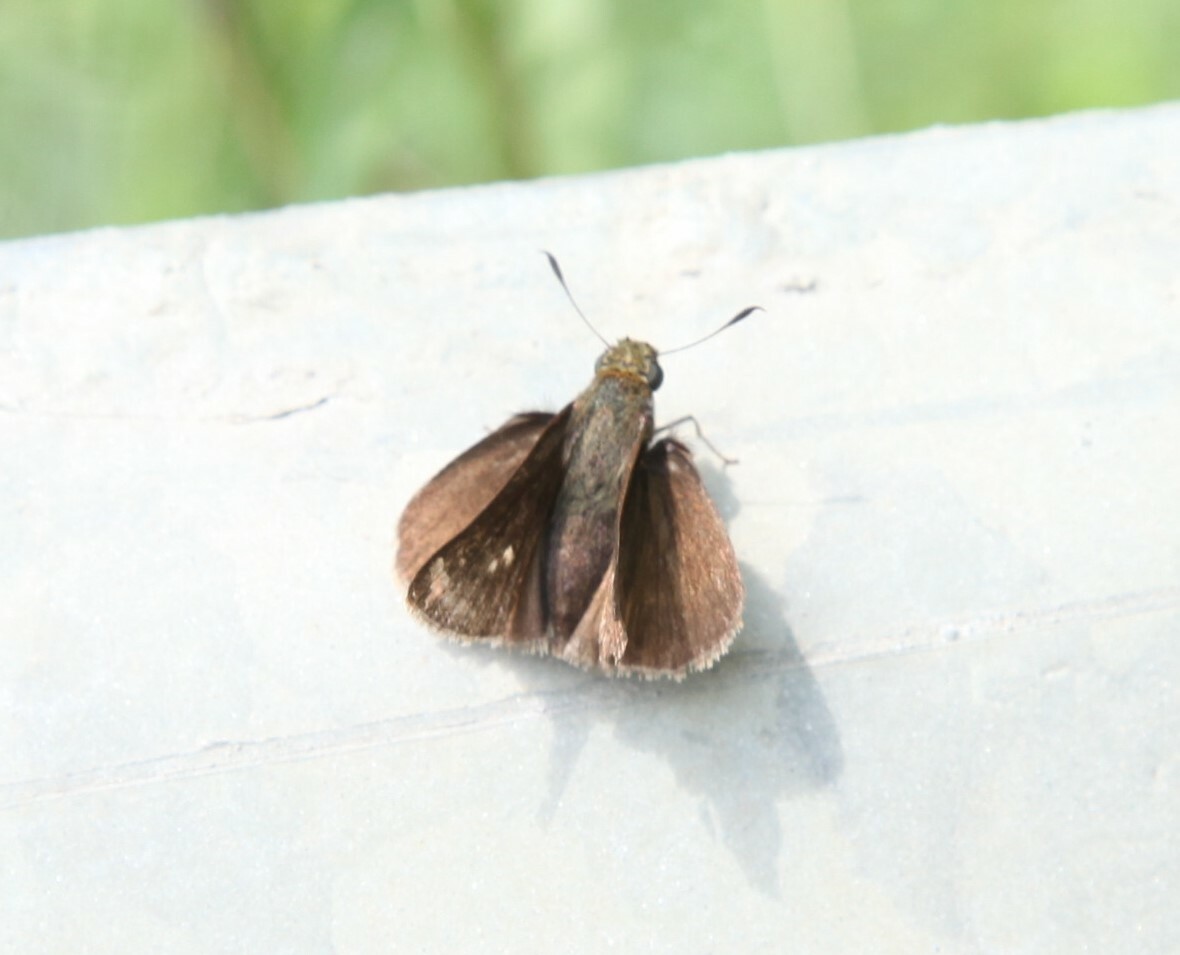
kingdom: Animalia
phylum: Arthropoda
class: Insecta
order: Lepidoptera
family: Hesperiidae
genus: Euphyes
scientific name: Euphyes vestris
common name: Dun skipper
